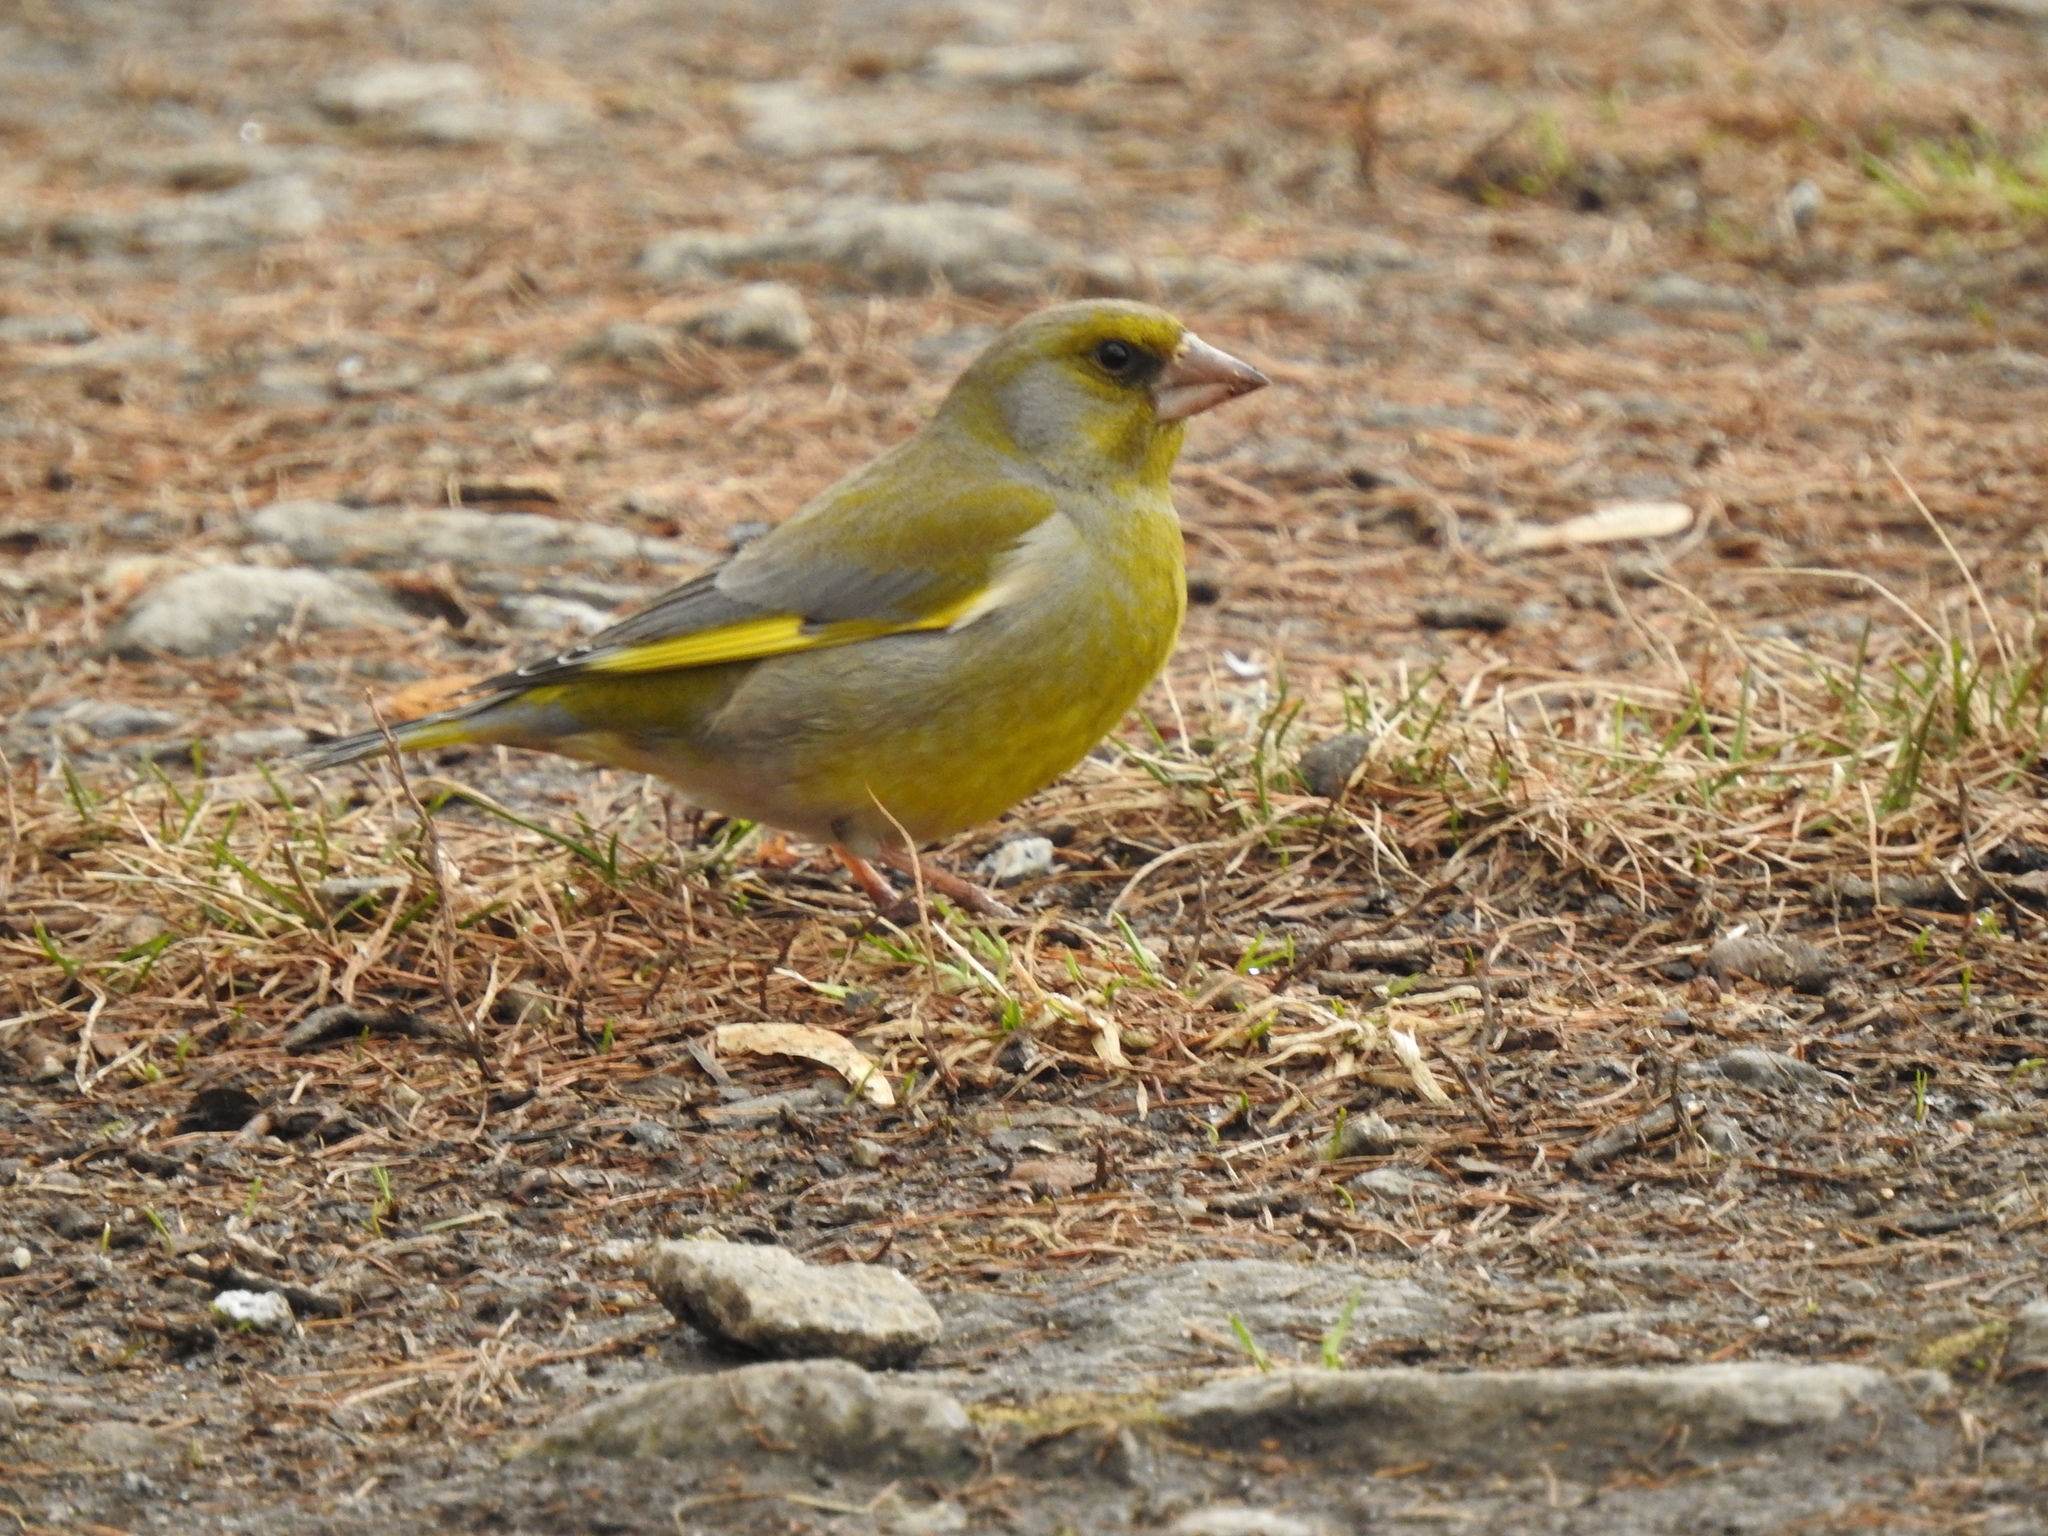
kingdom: Plantae
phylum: Tracheophyta
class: Liliopsida
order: Poales
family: Poaceae
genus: Chloris
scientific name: Chloris chloris
